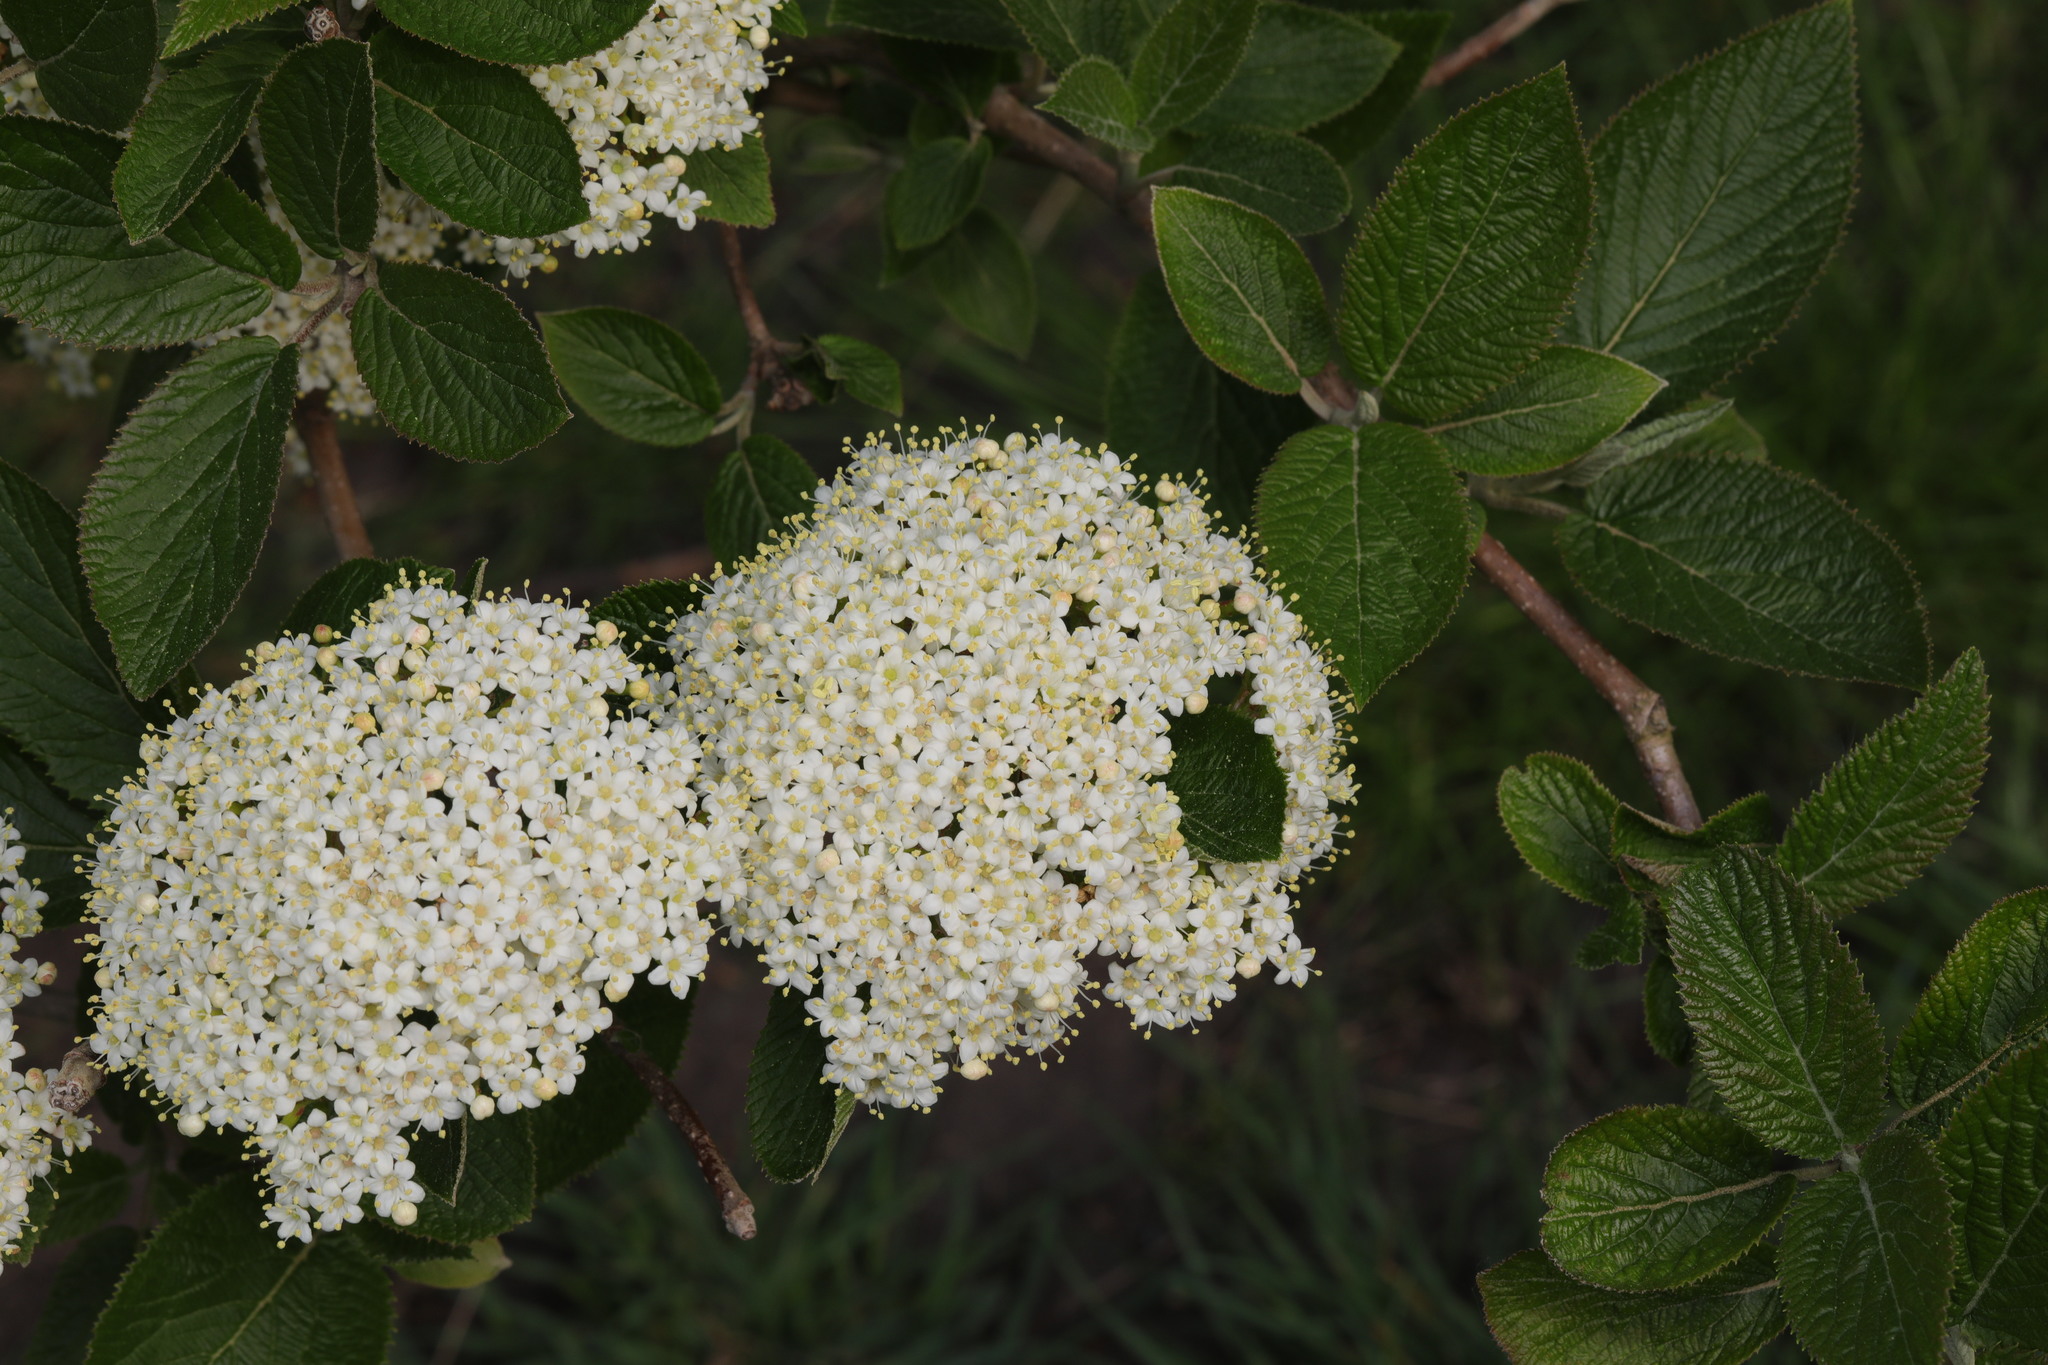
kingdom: Plantae
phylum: Tracheophyta
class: Magnoliopsida
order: Dipsacales
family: Viburnaceae
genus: Viburnum
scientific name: Viburnum lantana
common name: Wayfaring tree
